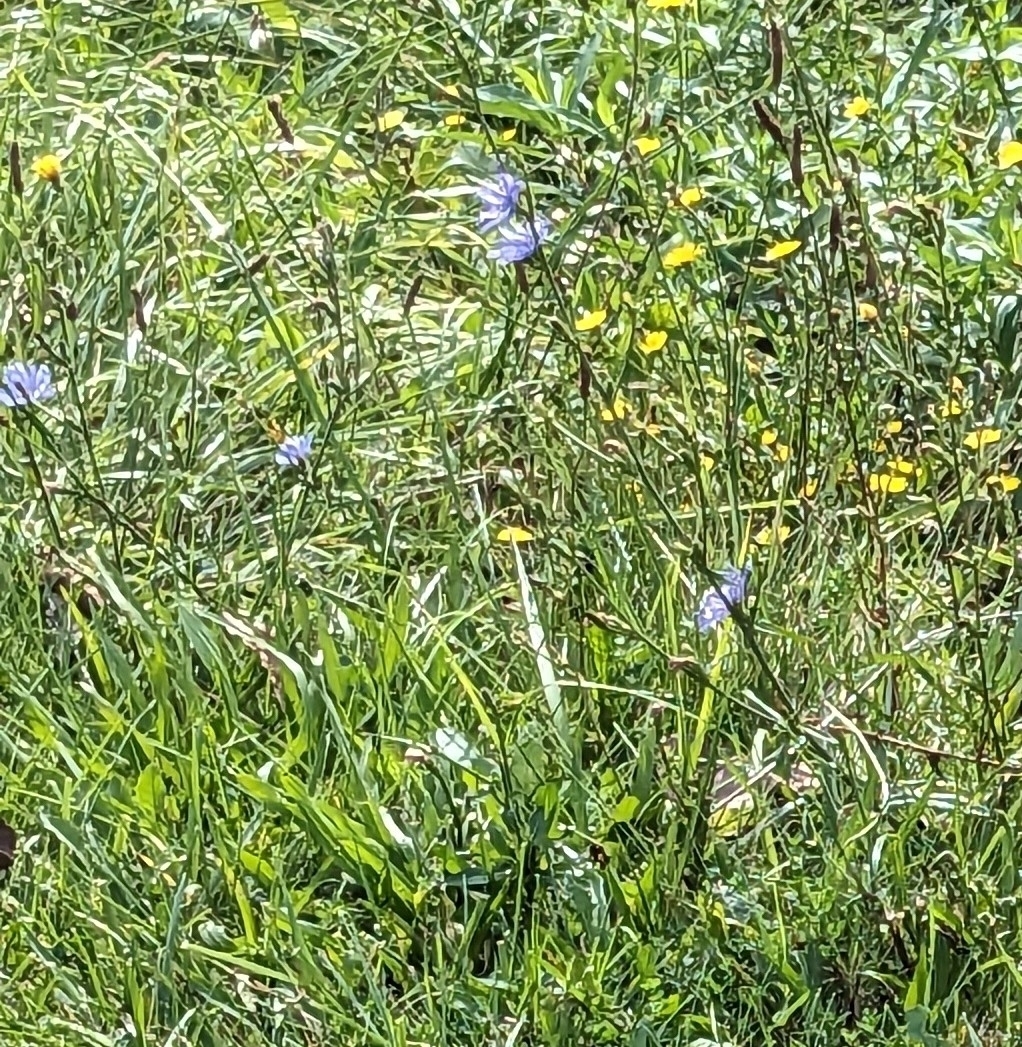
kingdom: Plantae
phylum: Tracheophyta
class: Magnoliopsida
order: Asterales
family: Asteraceae
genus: Cichorium
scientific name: Cichorium intybus
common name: Chicory
